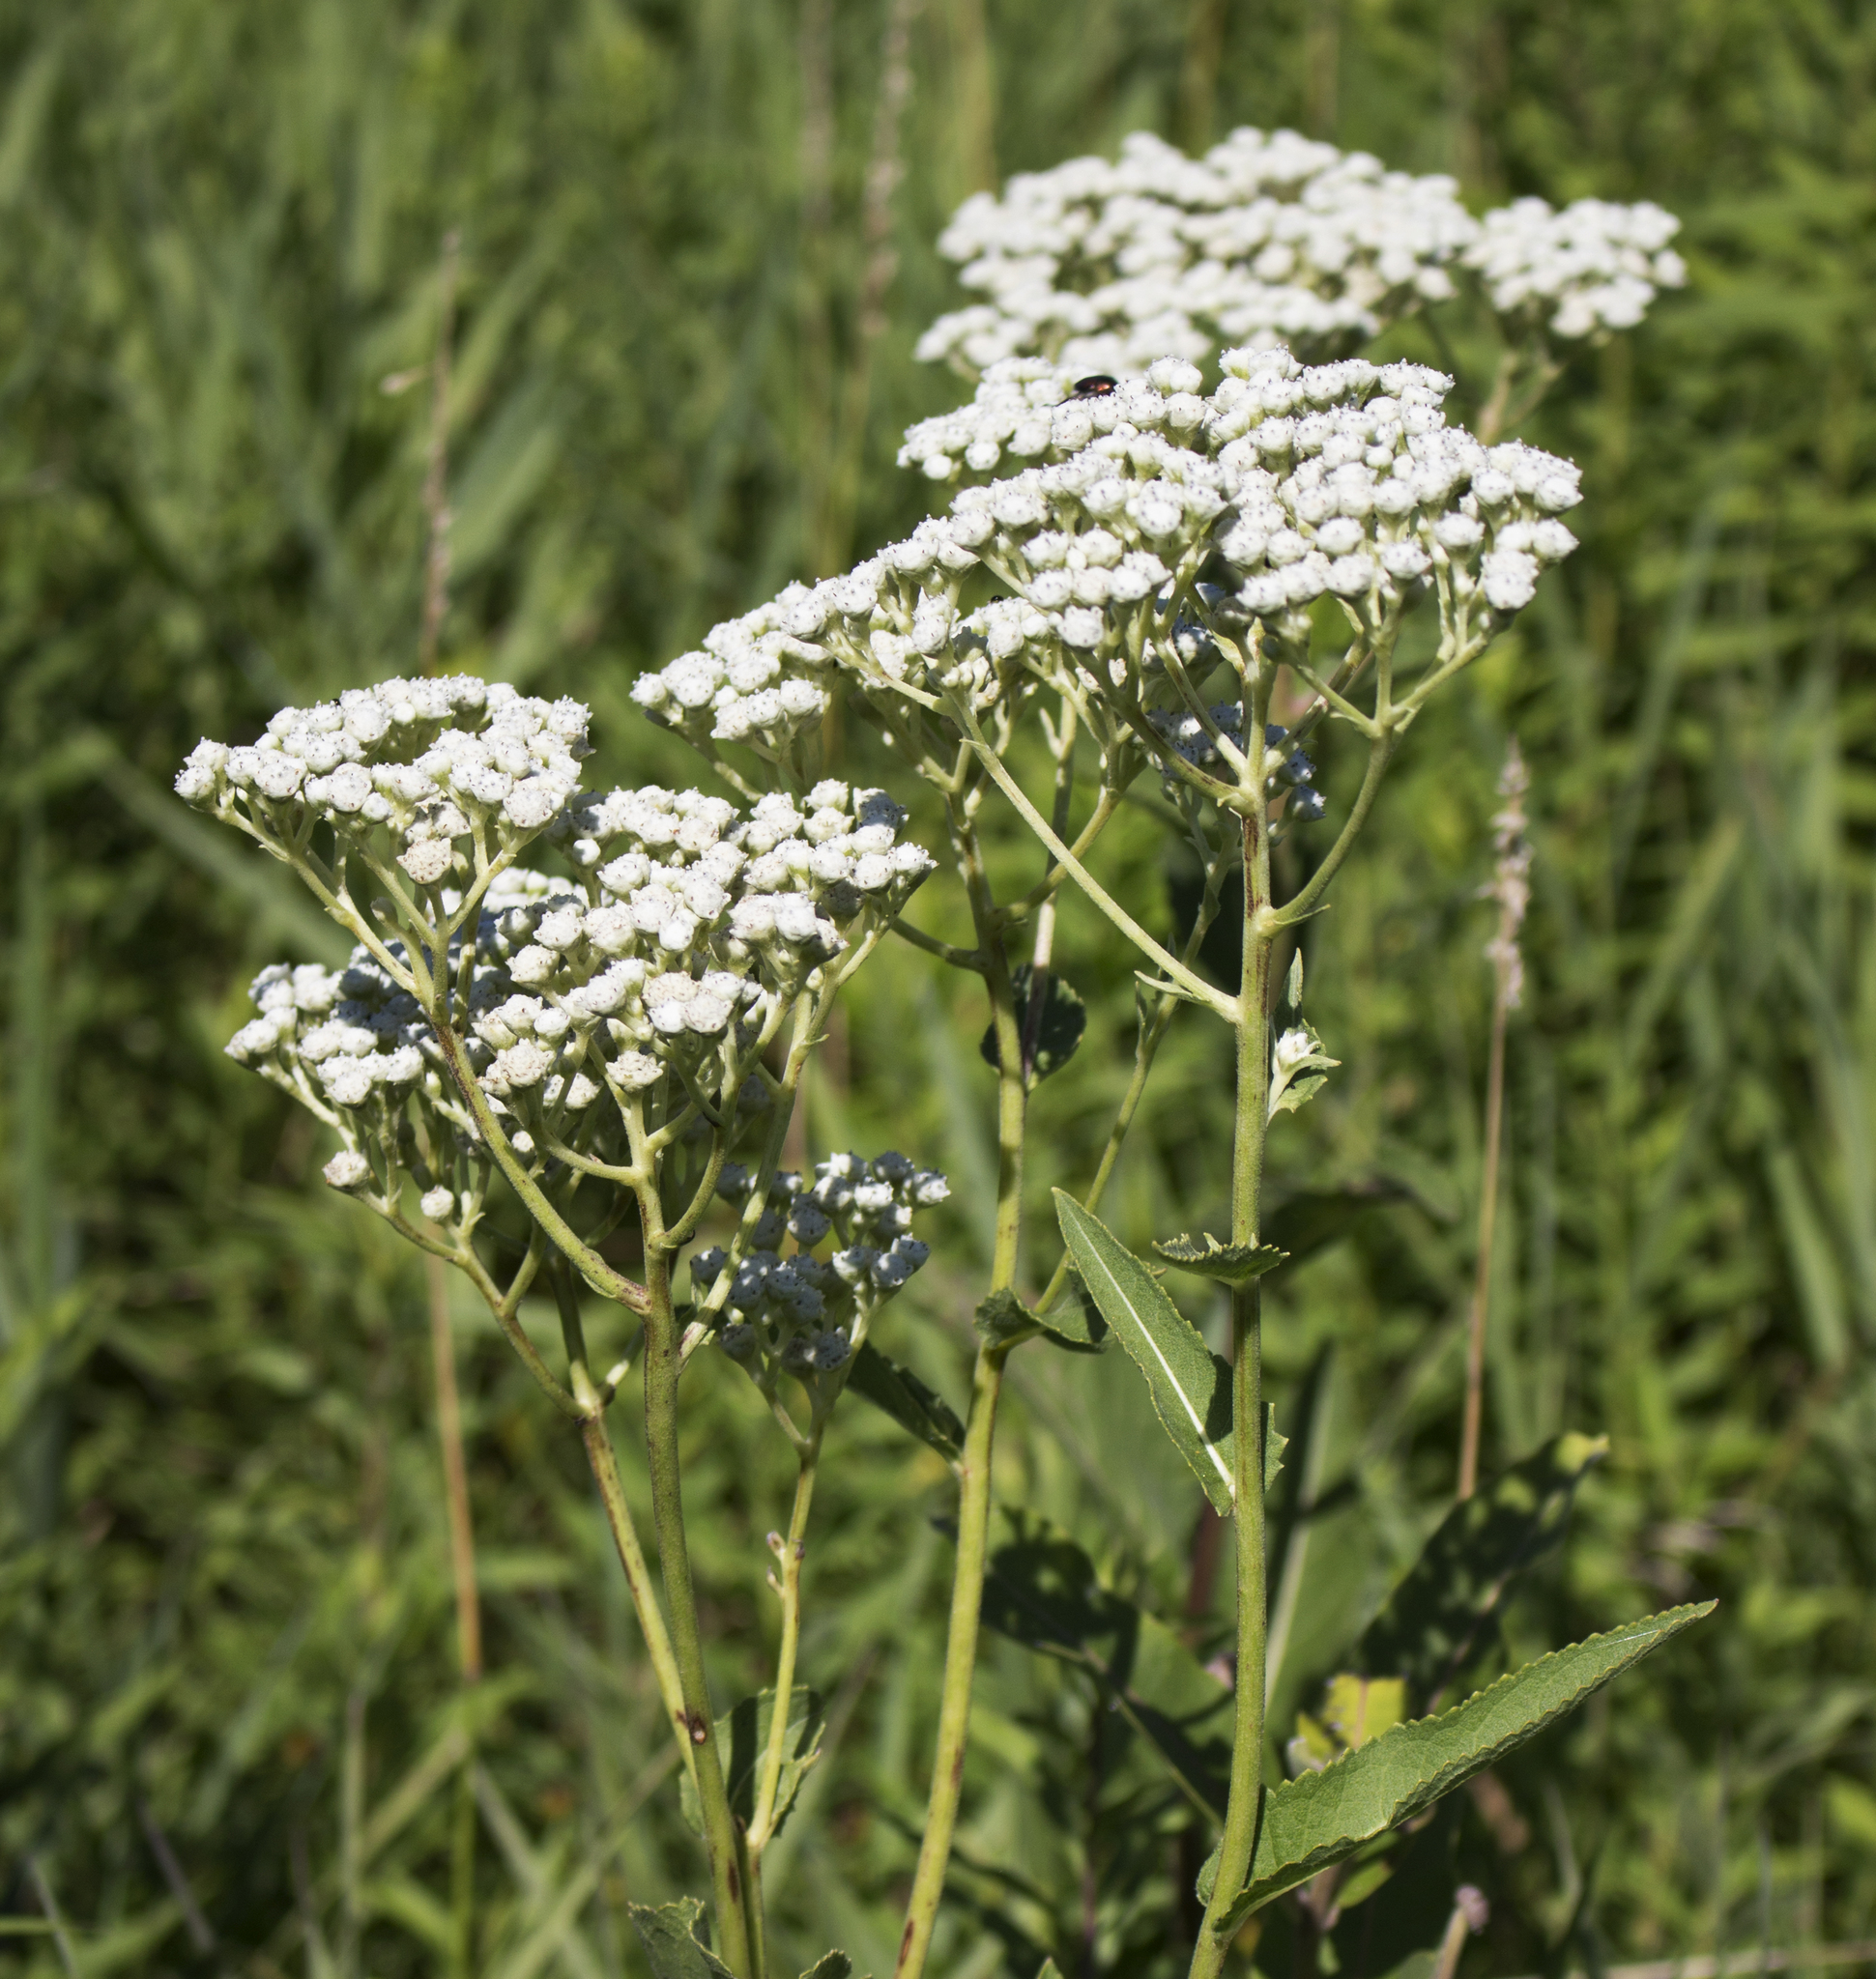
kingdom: Plantae
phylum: Tracheophyta
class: Magnoliopsida
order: Asterales
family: Asteraceae
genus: Parthenium
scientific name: Parthenium integrifolium
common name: American feverfew
